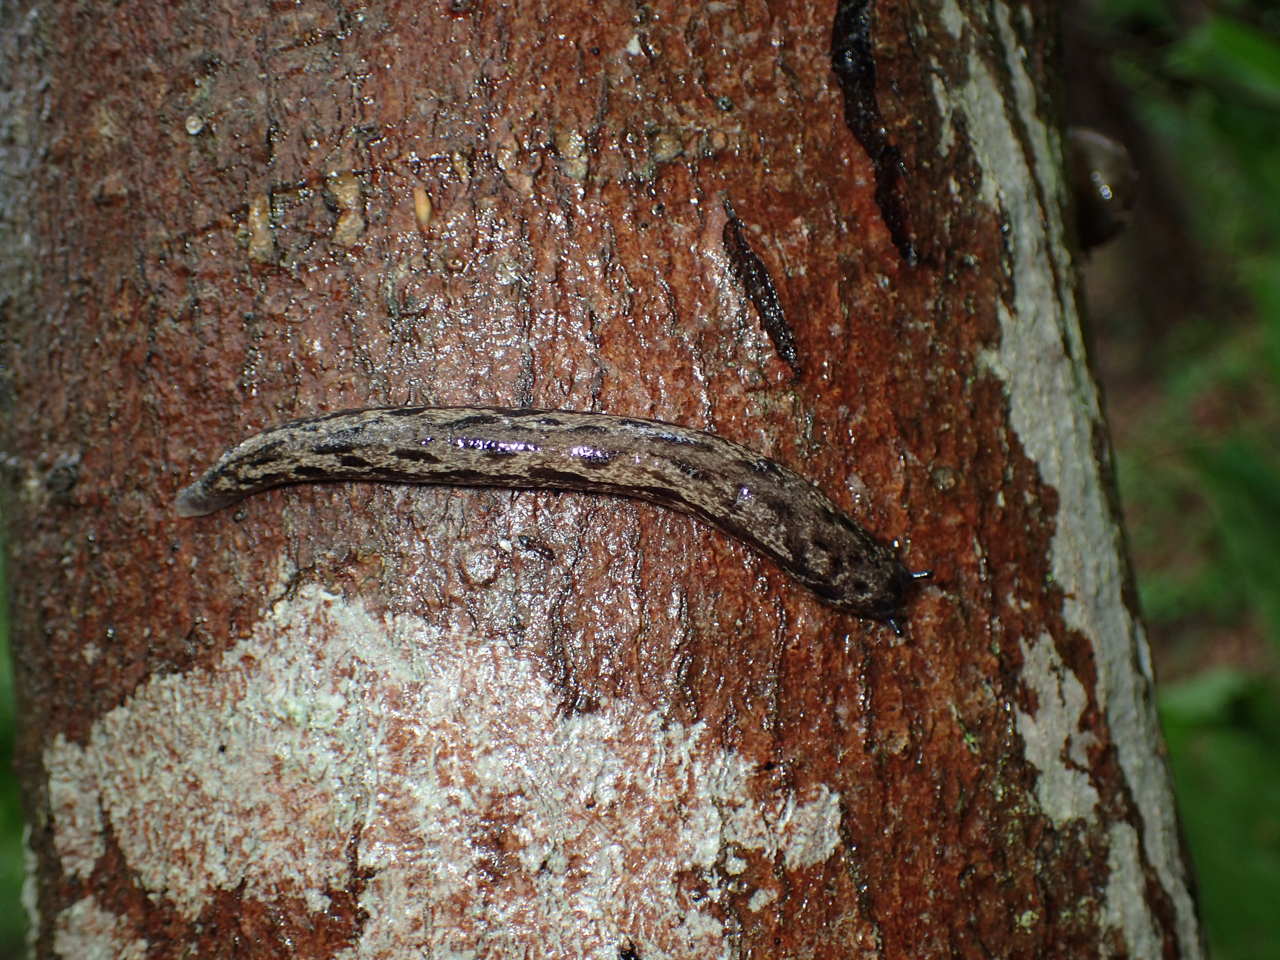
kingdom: Animalia
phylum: Mollusca
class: Gastropoda
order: Stylommatophora
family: Philomycidae
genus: Megapallifera
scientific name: Megapallifera mutabilis
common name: Changeable mantleslug
